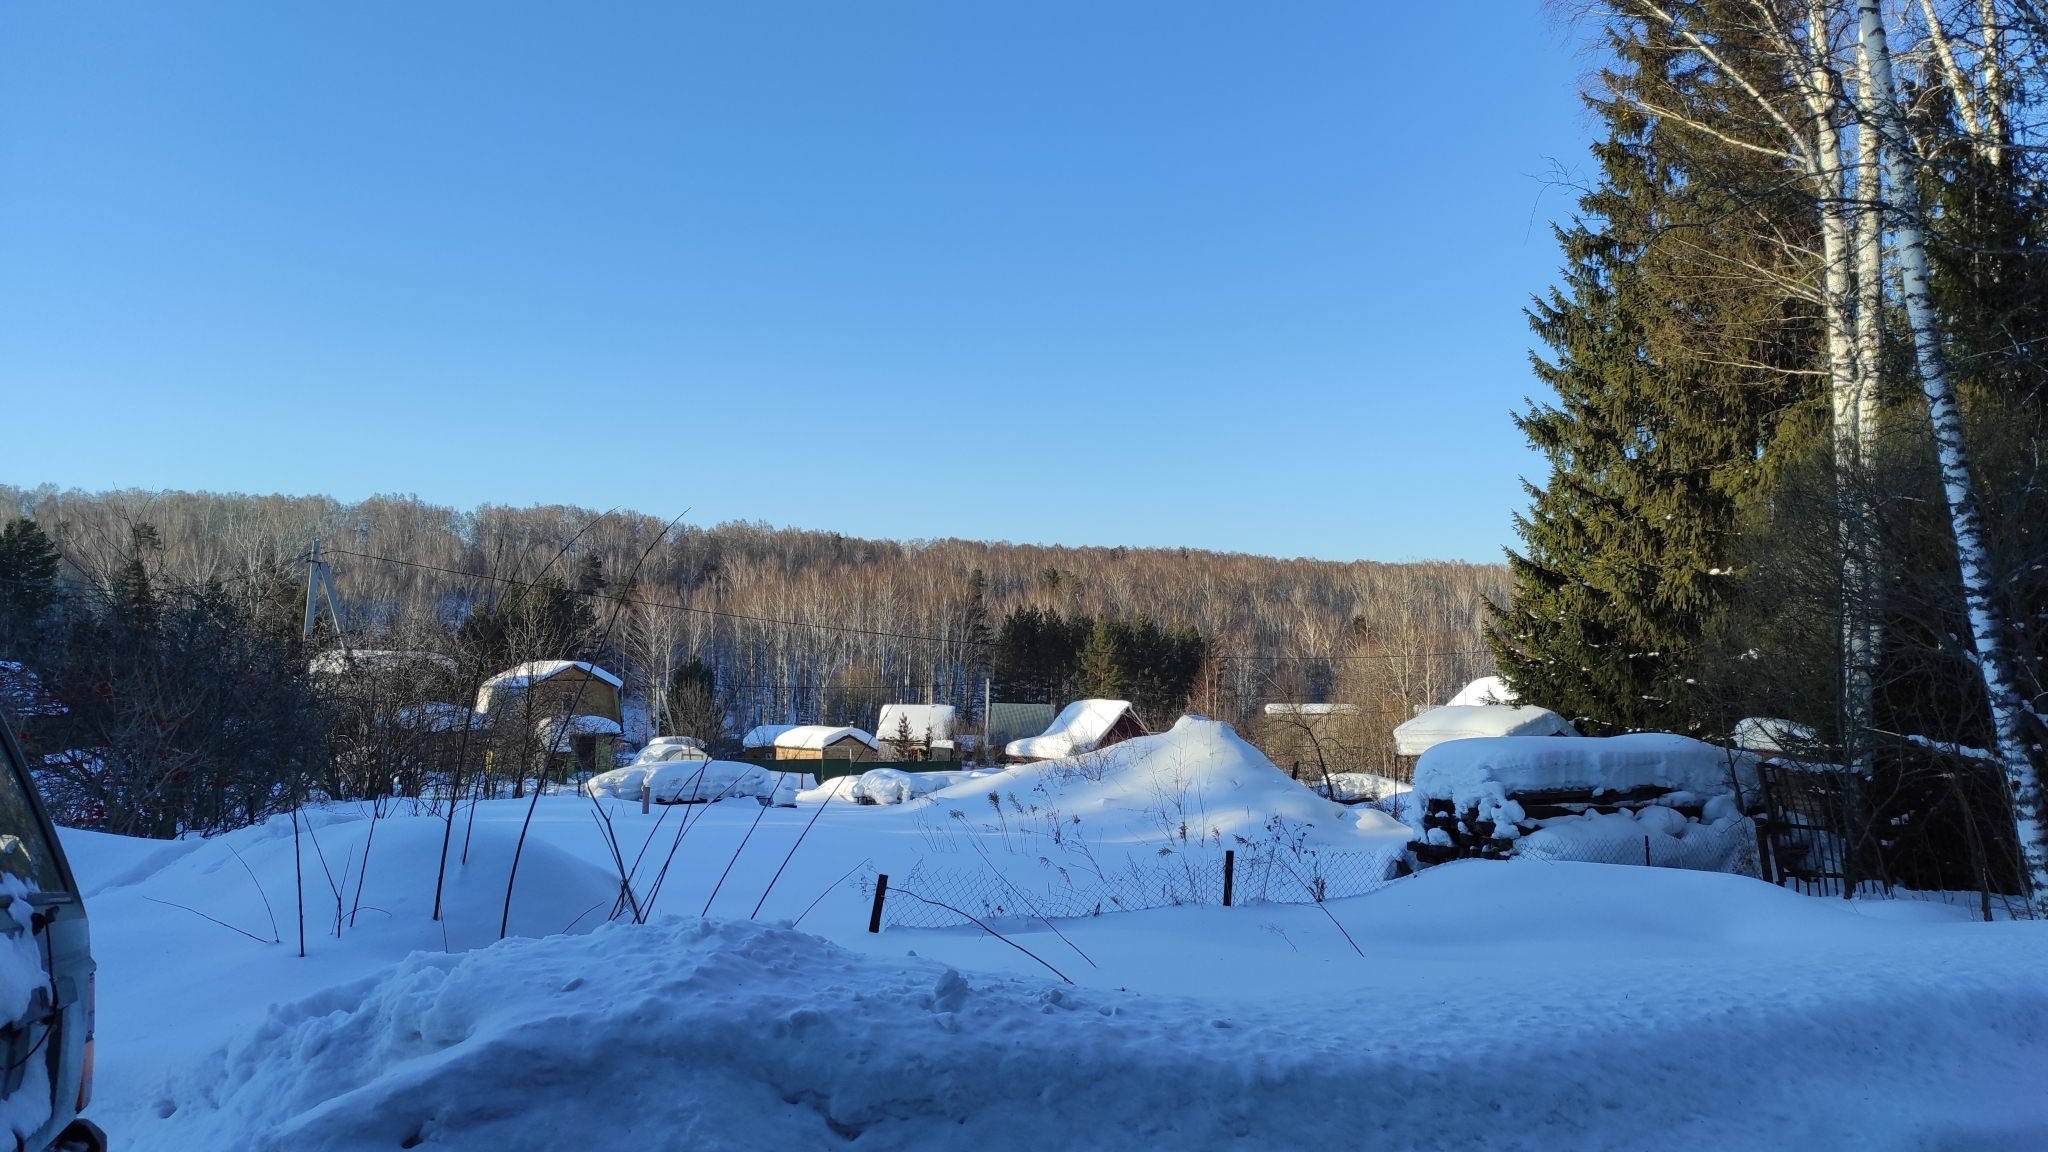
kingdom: Plantae
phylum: Tracheophyta
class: Magnoliopsida
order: Fagales
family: Betulaceae
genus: Betula
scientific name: Betula pendula
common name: Silver birch
